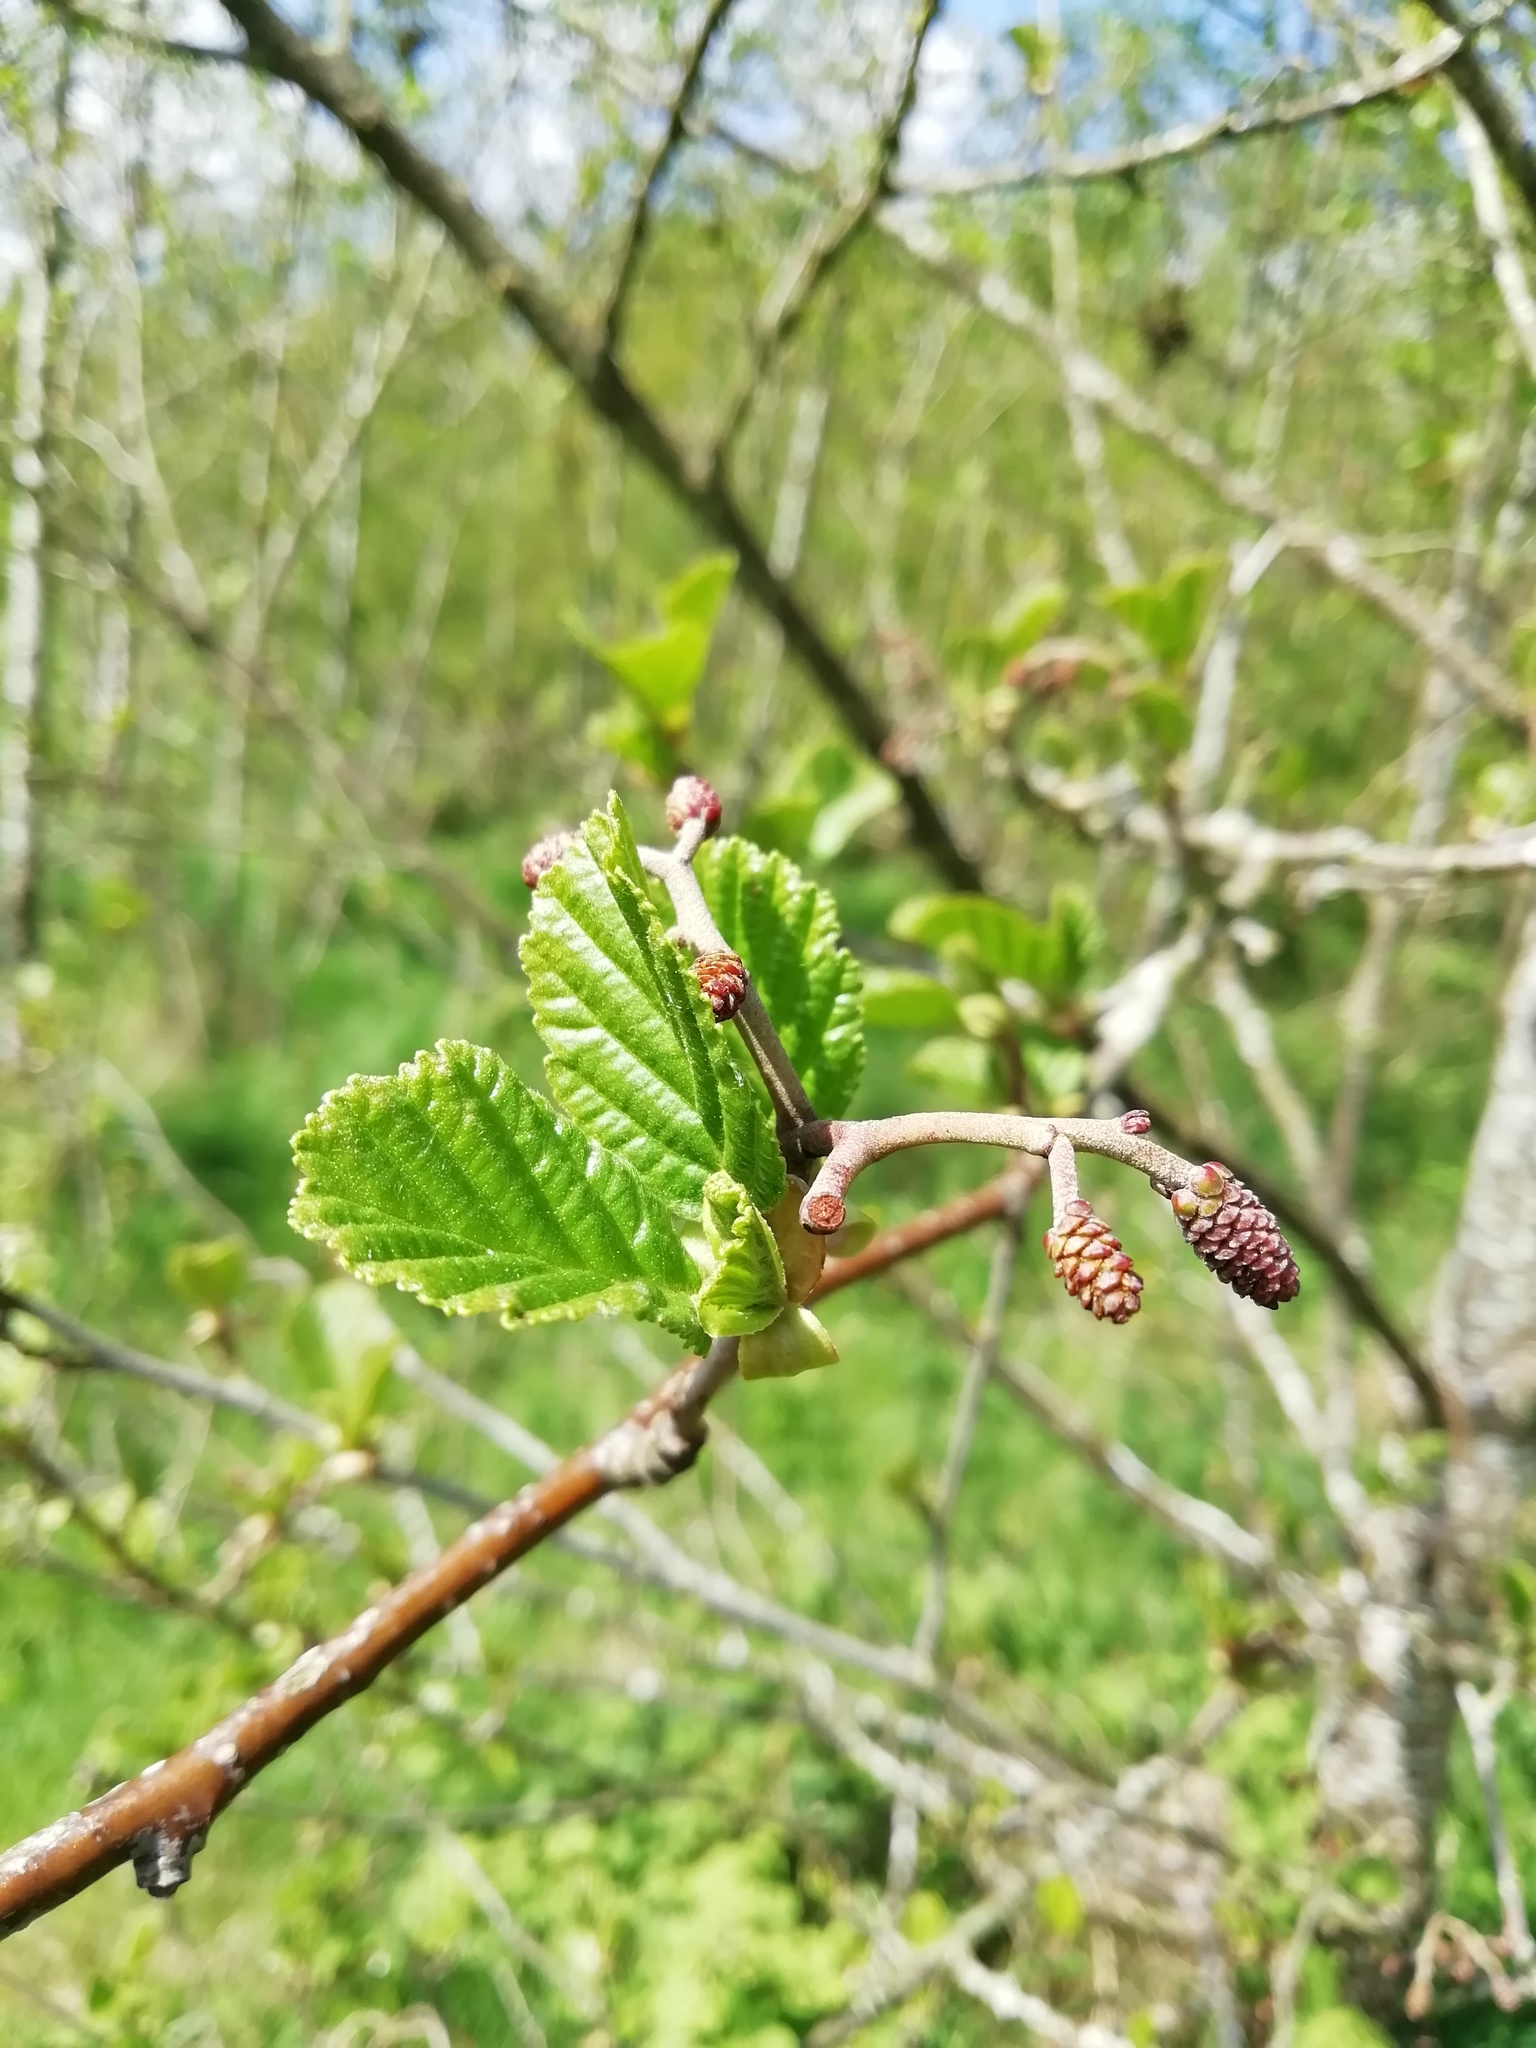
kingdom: Plantae
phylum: Tracheophyta
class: Magnoliopsida
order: Fagales
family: Betulaceae
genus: Alnus
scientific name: Alnus glutinosa
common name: Black alder
